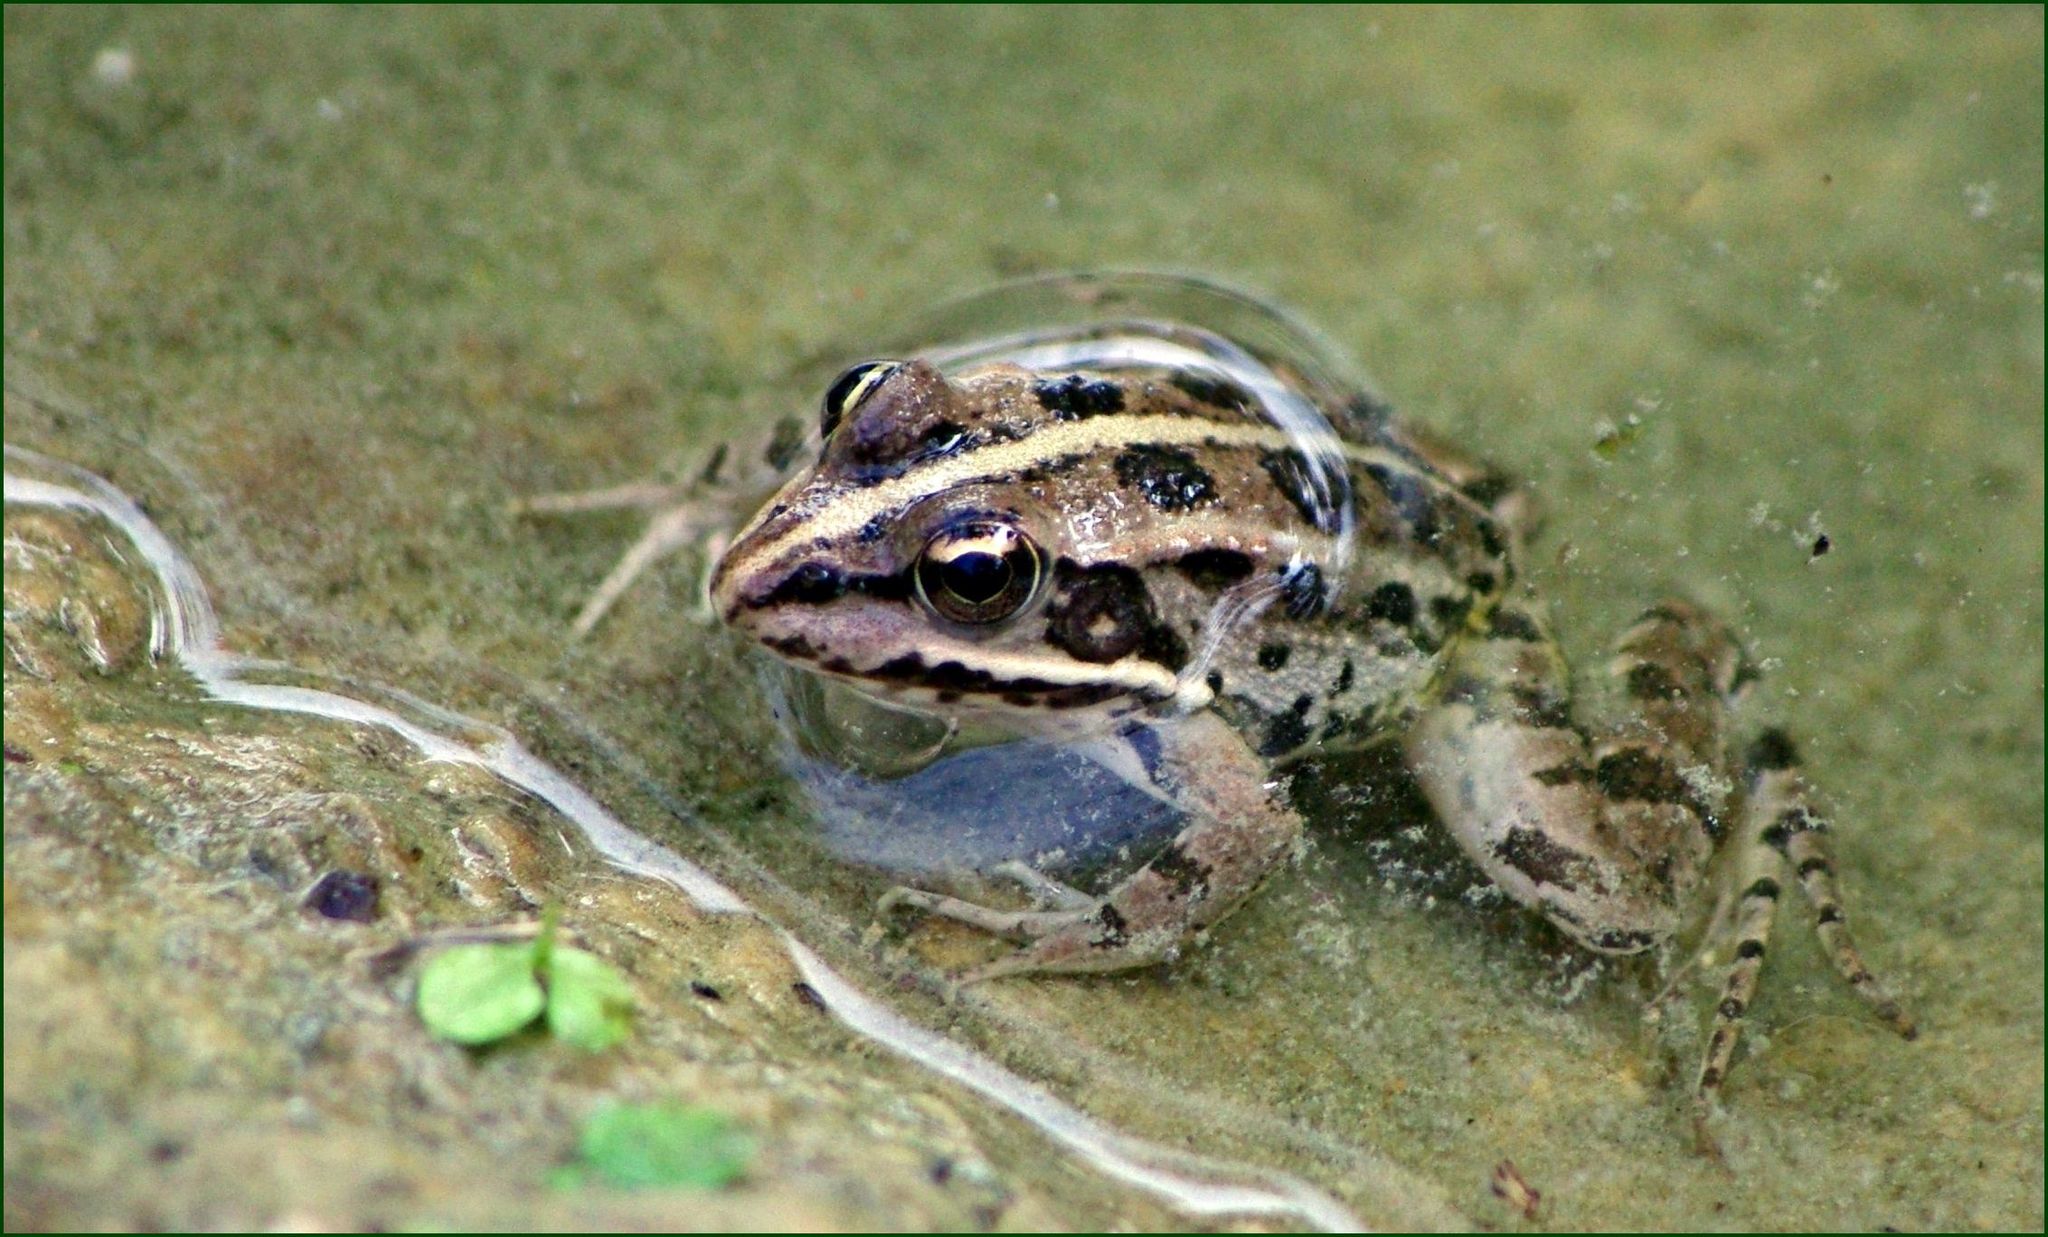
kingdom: Animalia
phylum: Chordata
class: Amphibia
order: Anura
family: Ranidae
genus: Pelophylax
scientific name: Pelophylax ridibundus
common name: Marsh frog
